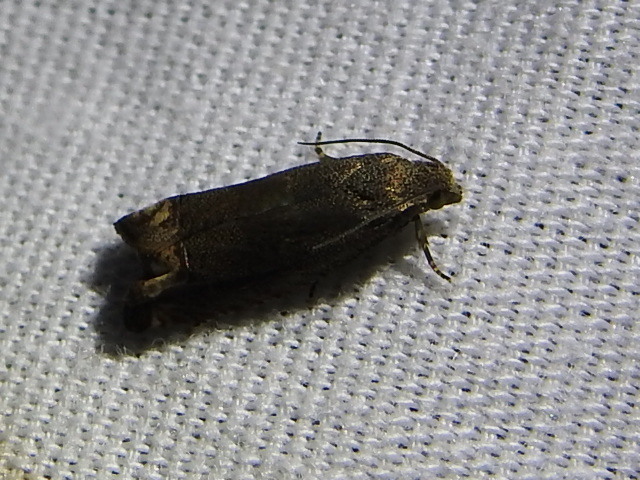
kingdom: Animalia
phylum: Arthropoda
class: Insecta
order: Lepidoptera
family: Tortricidae
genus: Epiblema
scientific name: Epiblema strenuana
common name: Ragweed borer moth
